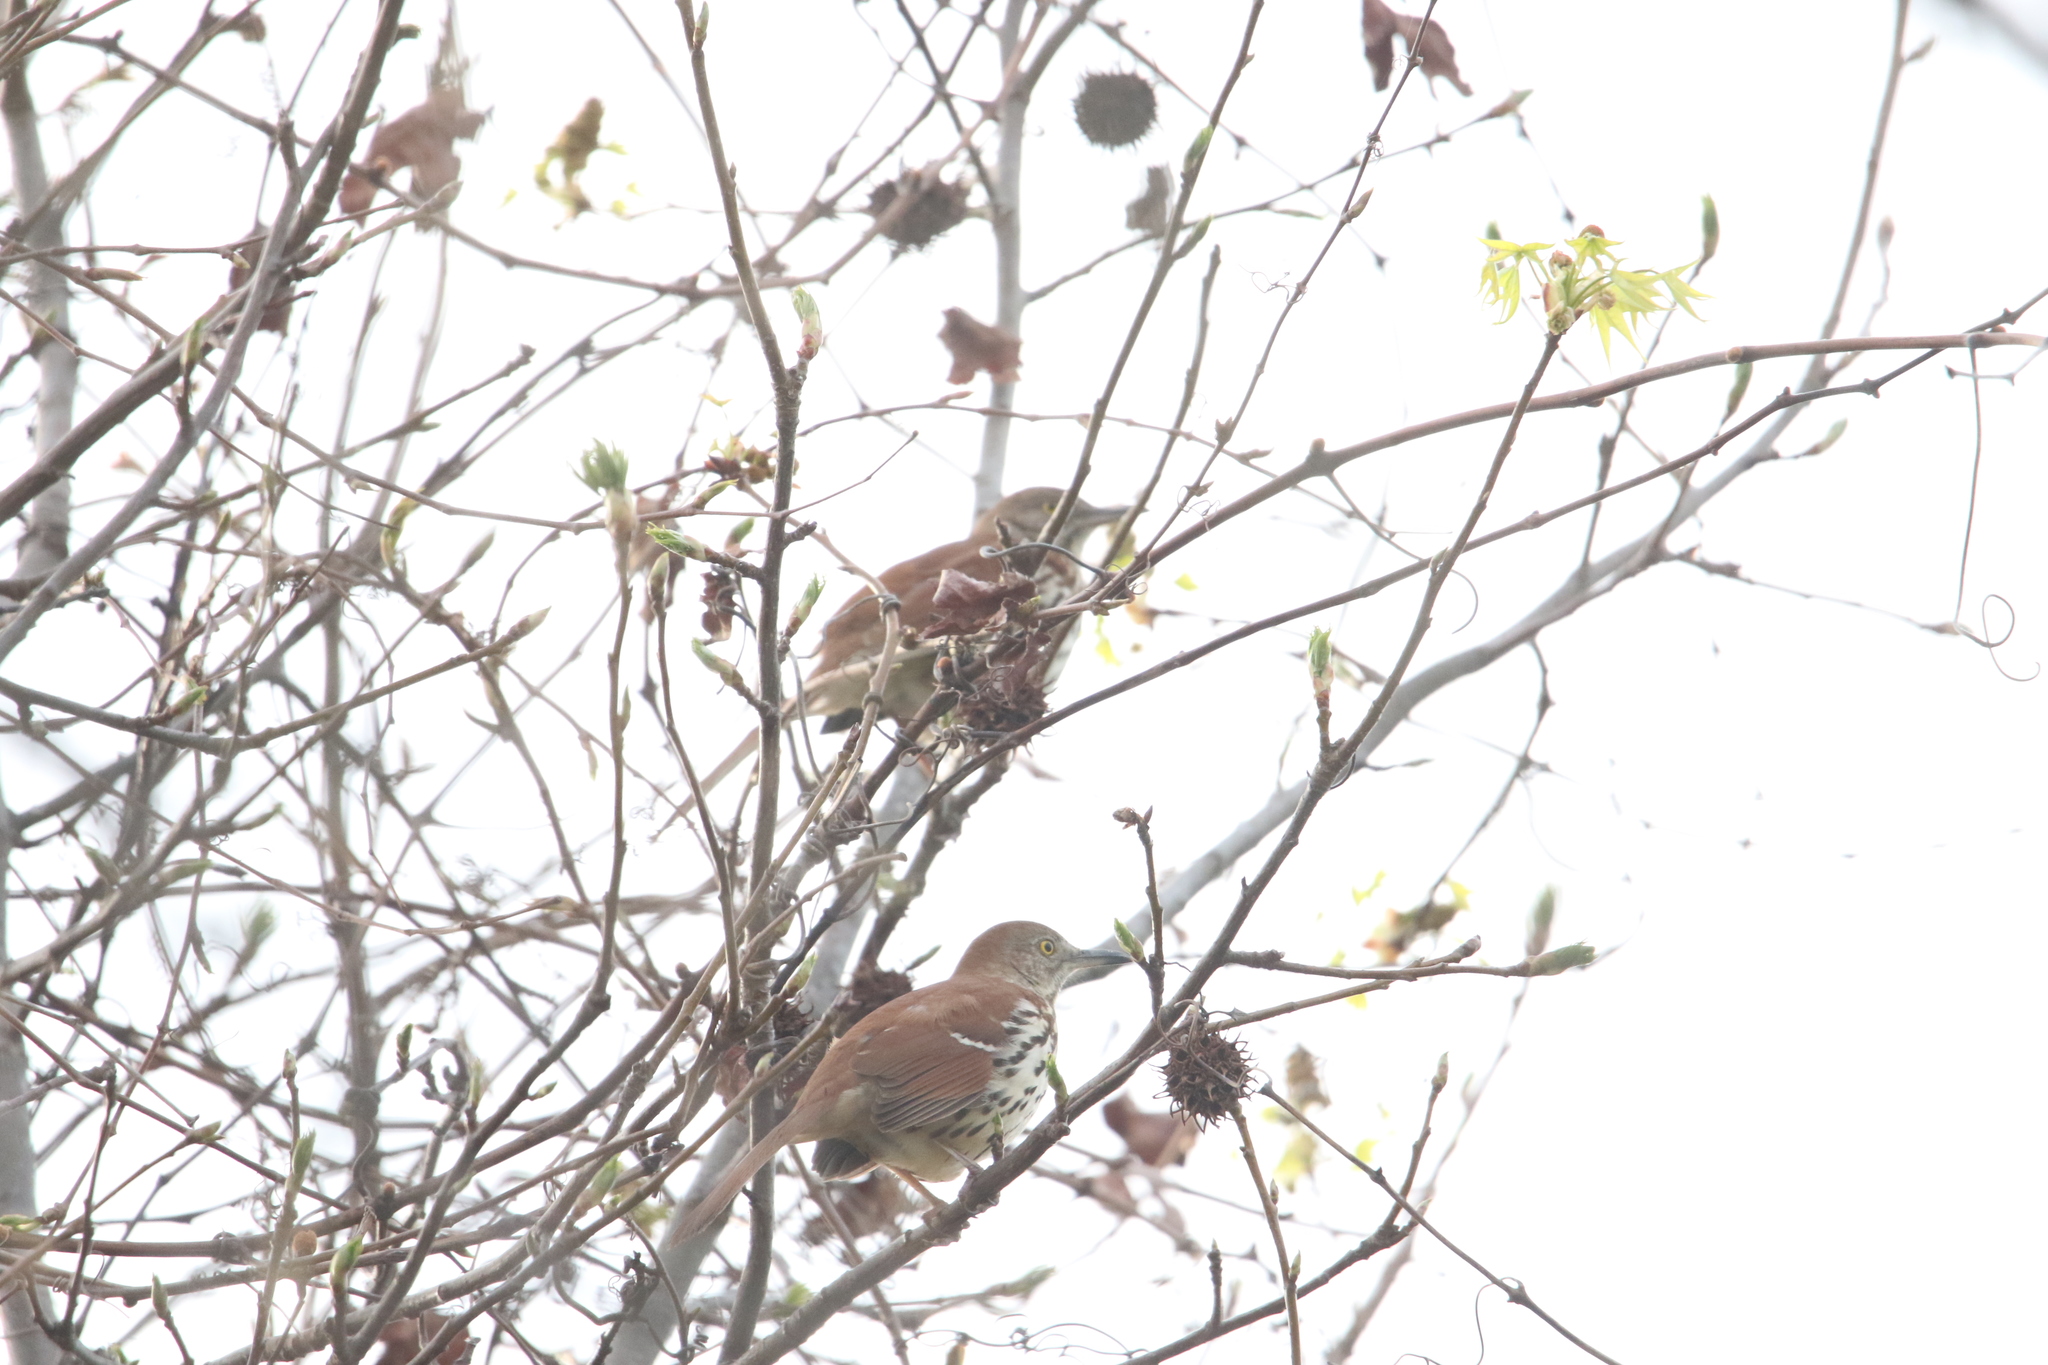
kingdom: Animalia
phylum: Chordata
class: Aves
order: Passeriformes
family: Mimidae
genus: Toxostoma
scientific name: Toxostoma rufum
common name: Brown thrasher
